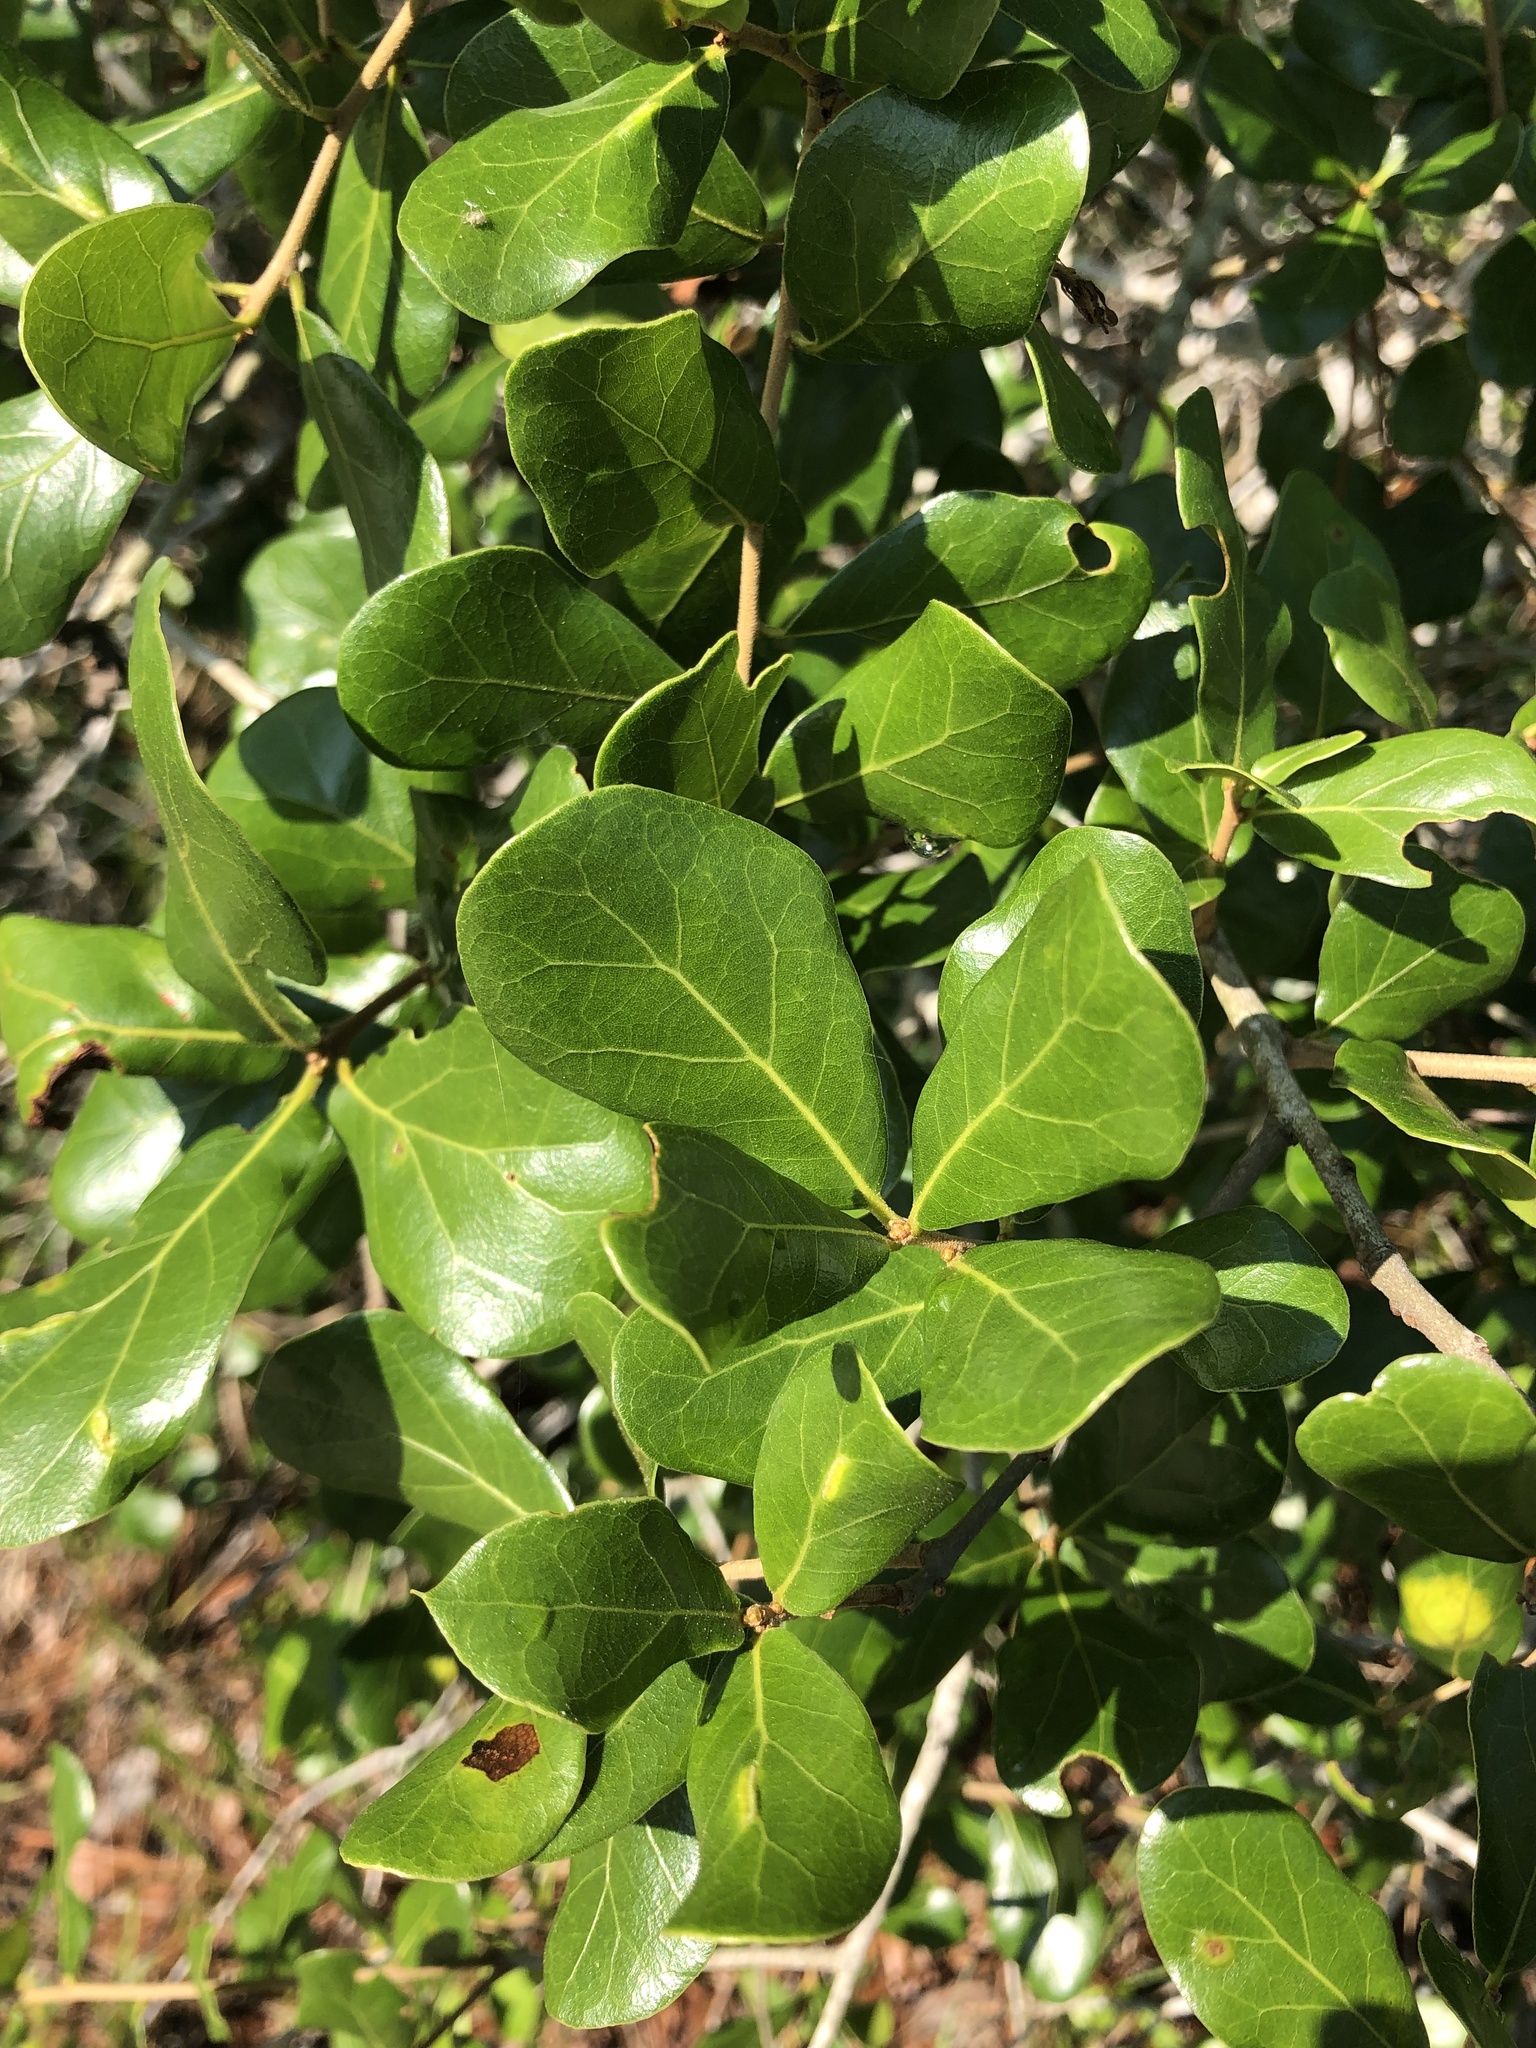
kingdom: Plantae
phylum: Tracheophyta
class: Magnoliopsida
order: Fagales
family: Fagaceae
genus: Quercus
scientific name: Quercus myrtifolia
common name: Myrtle oak
